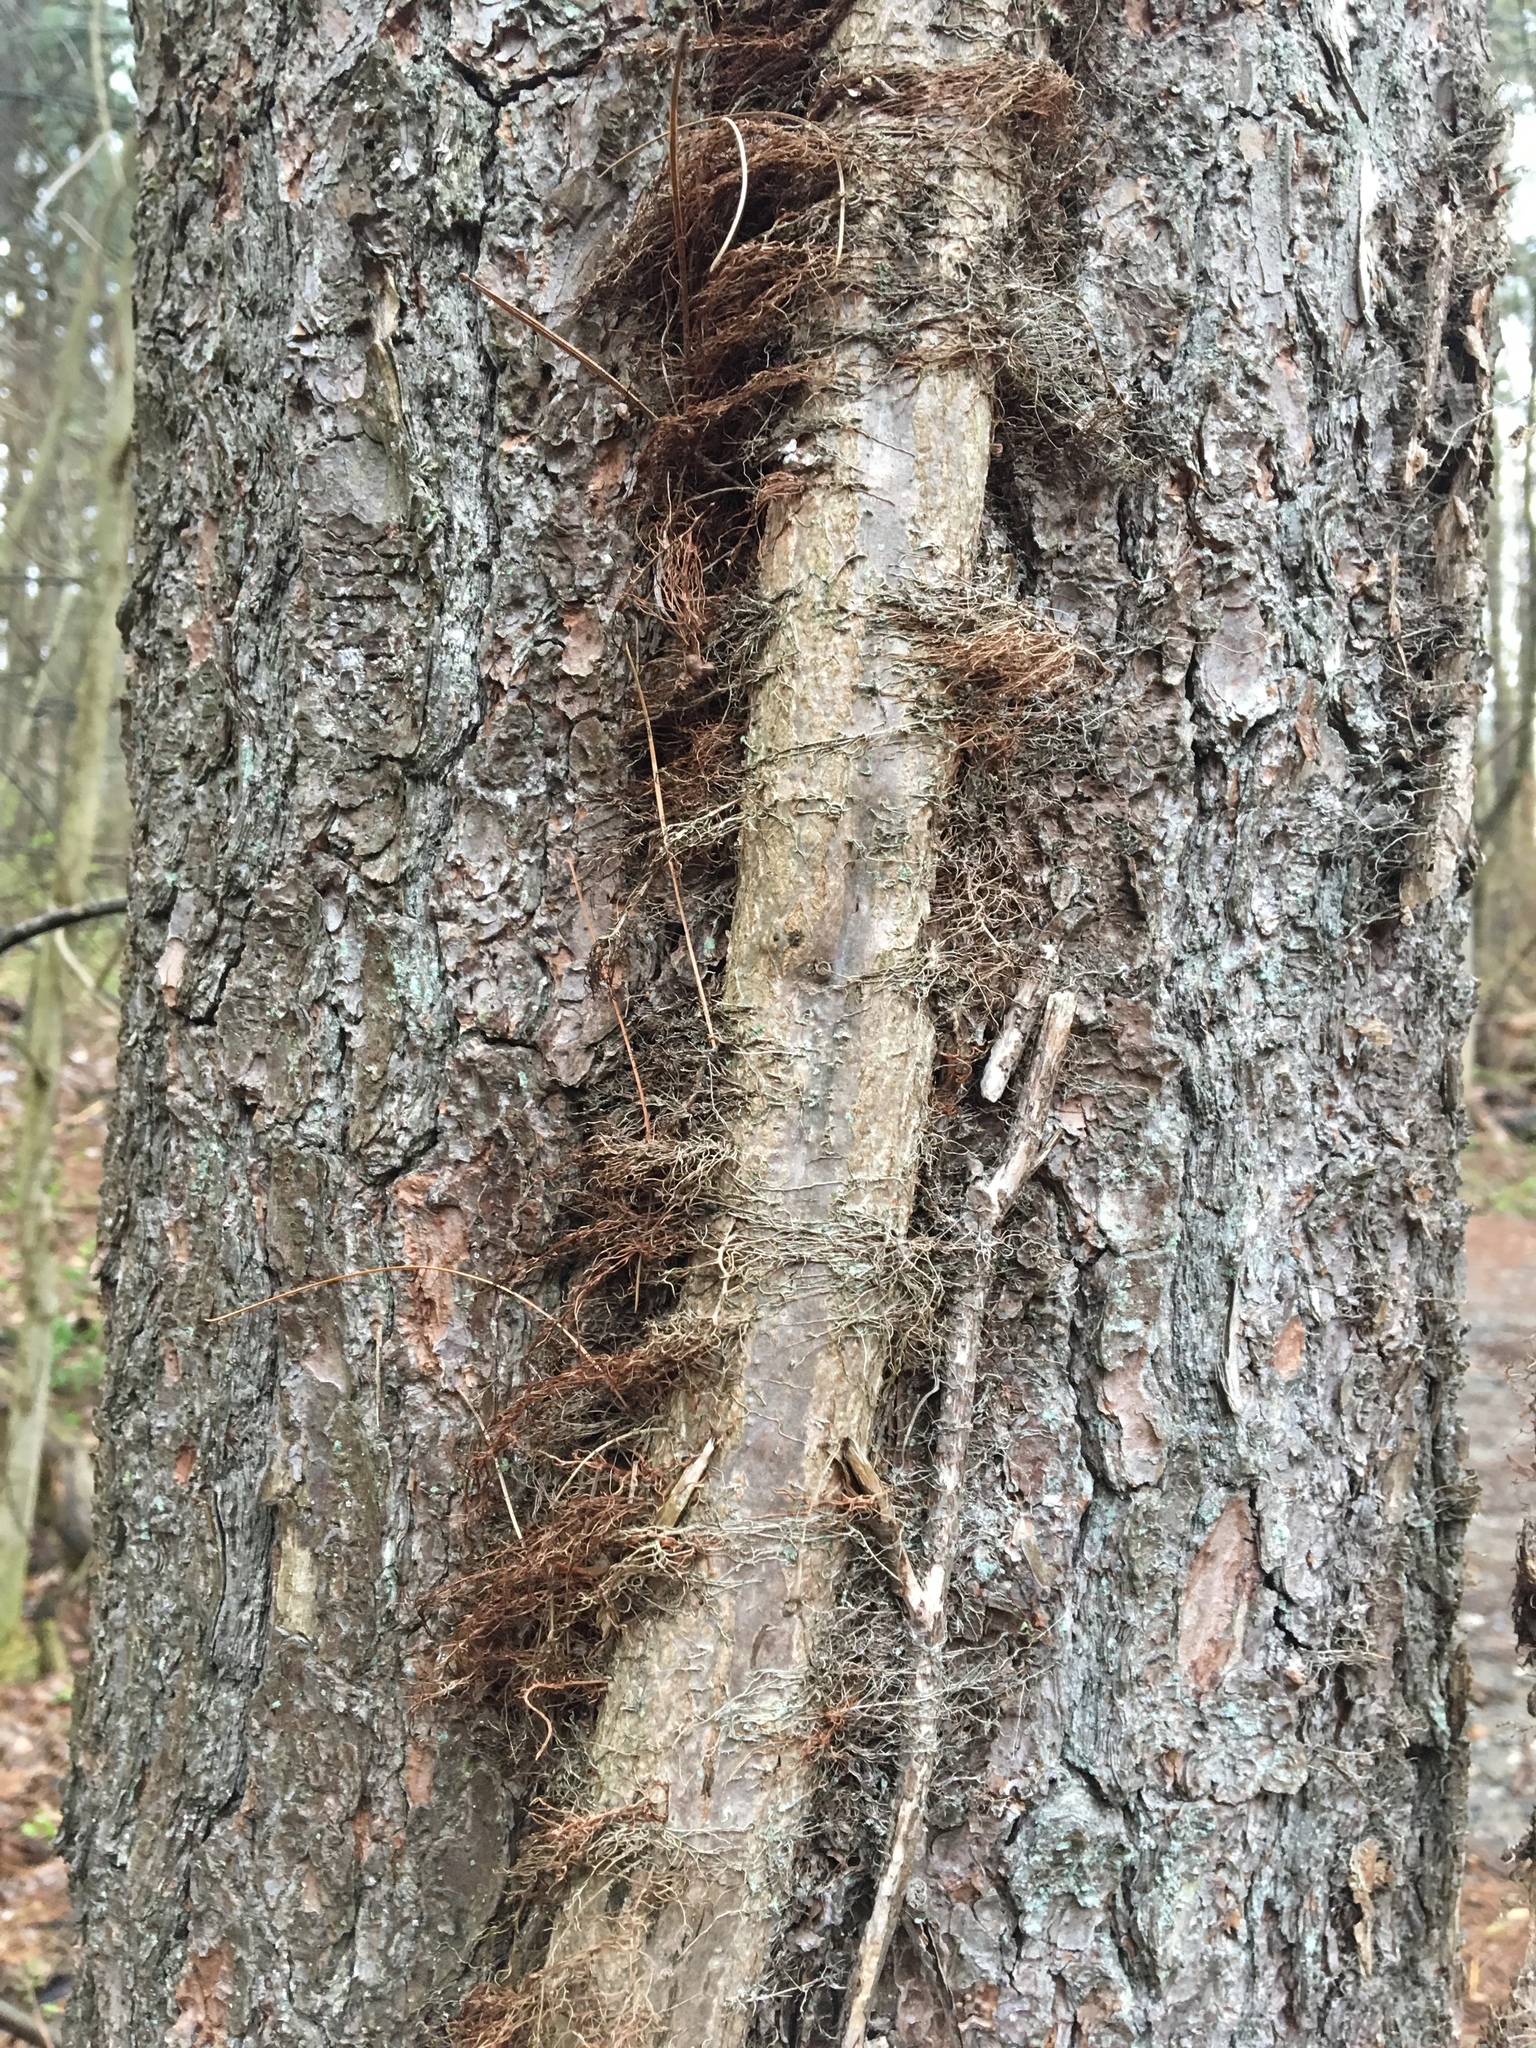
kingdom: Plantae
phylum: Tracheophyta
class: Magnoliopsida
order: Sapindales
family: Anacardiaceae
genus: Toxicodendron
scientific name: Toxicodendron radicans
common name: Poison ivy
